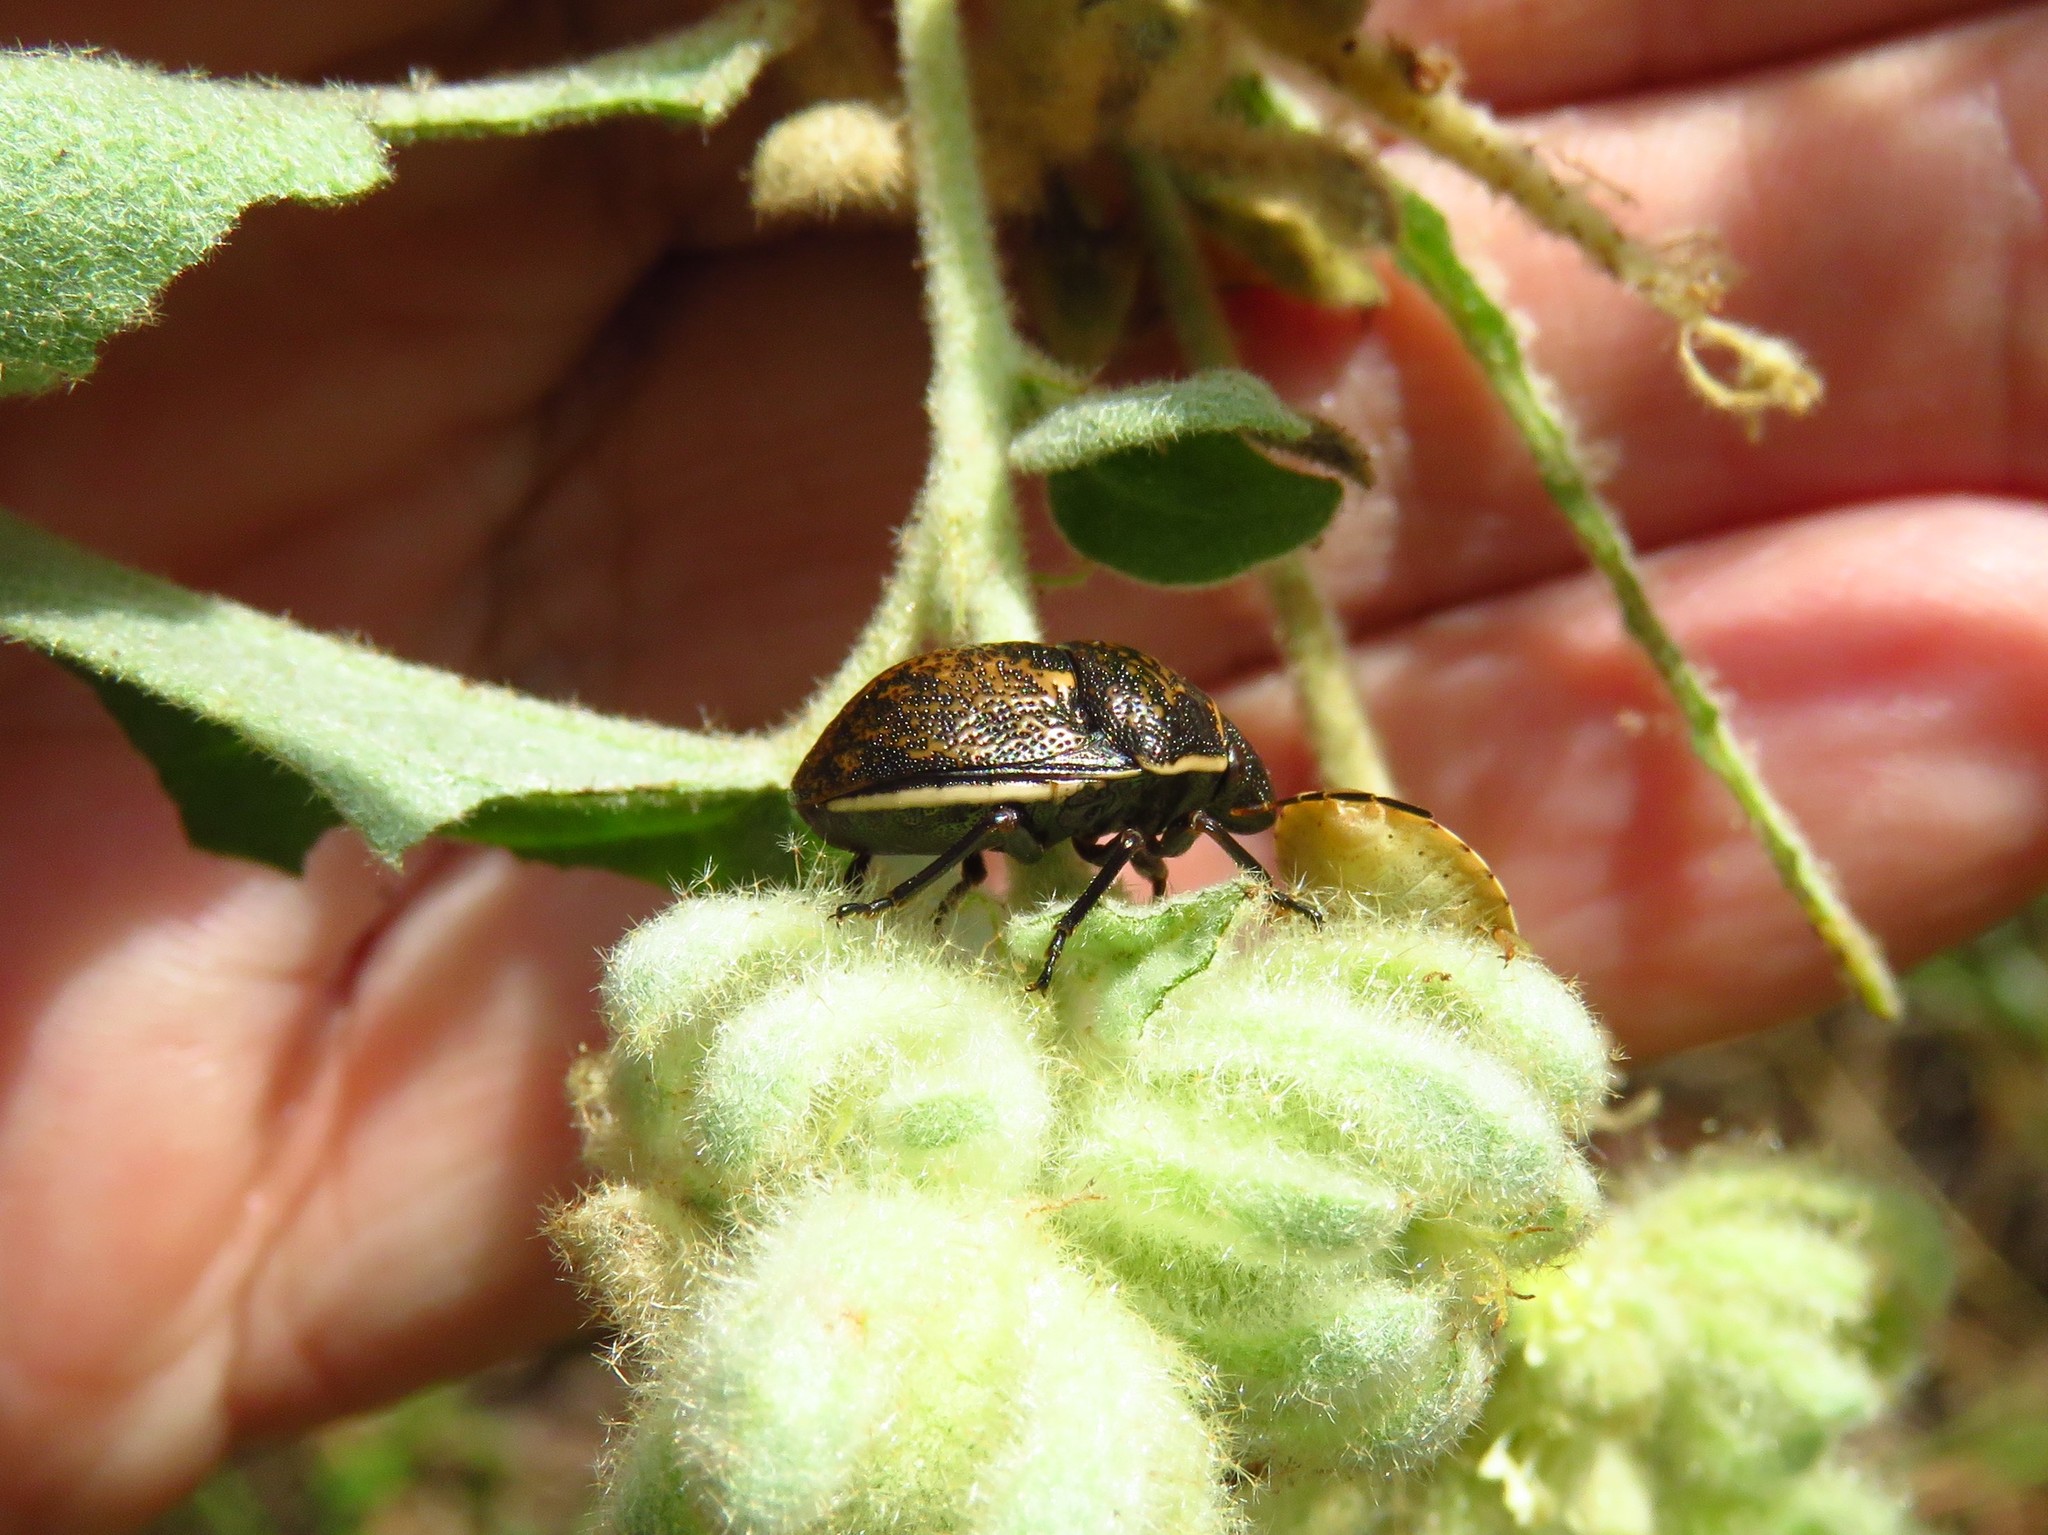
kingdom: Animalia
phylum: Arthropoda
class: Insecta
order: Hemiptera
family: Scutelleridae
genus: Orsilochides
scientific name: Orsilochides guttata
